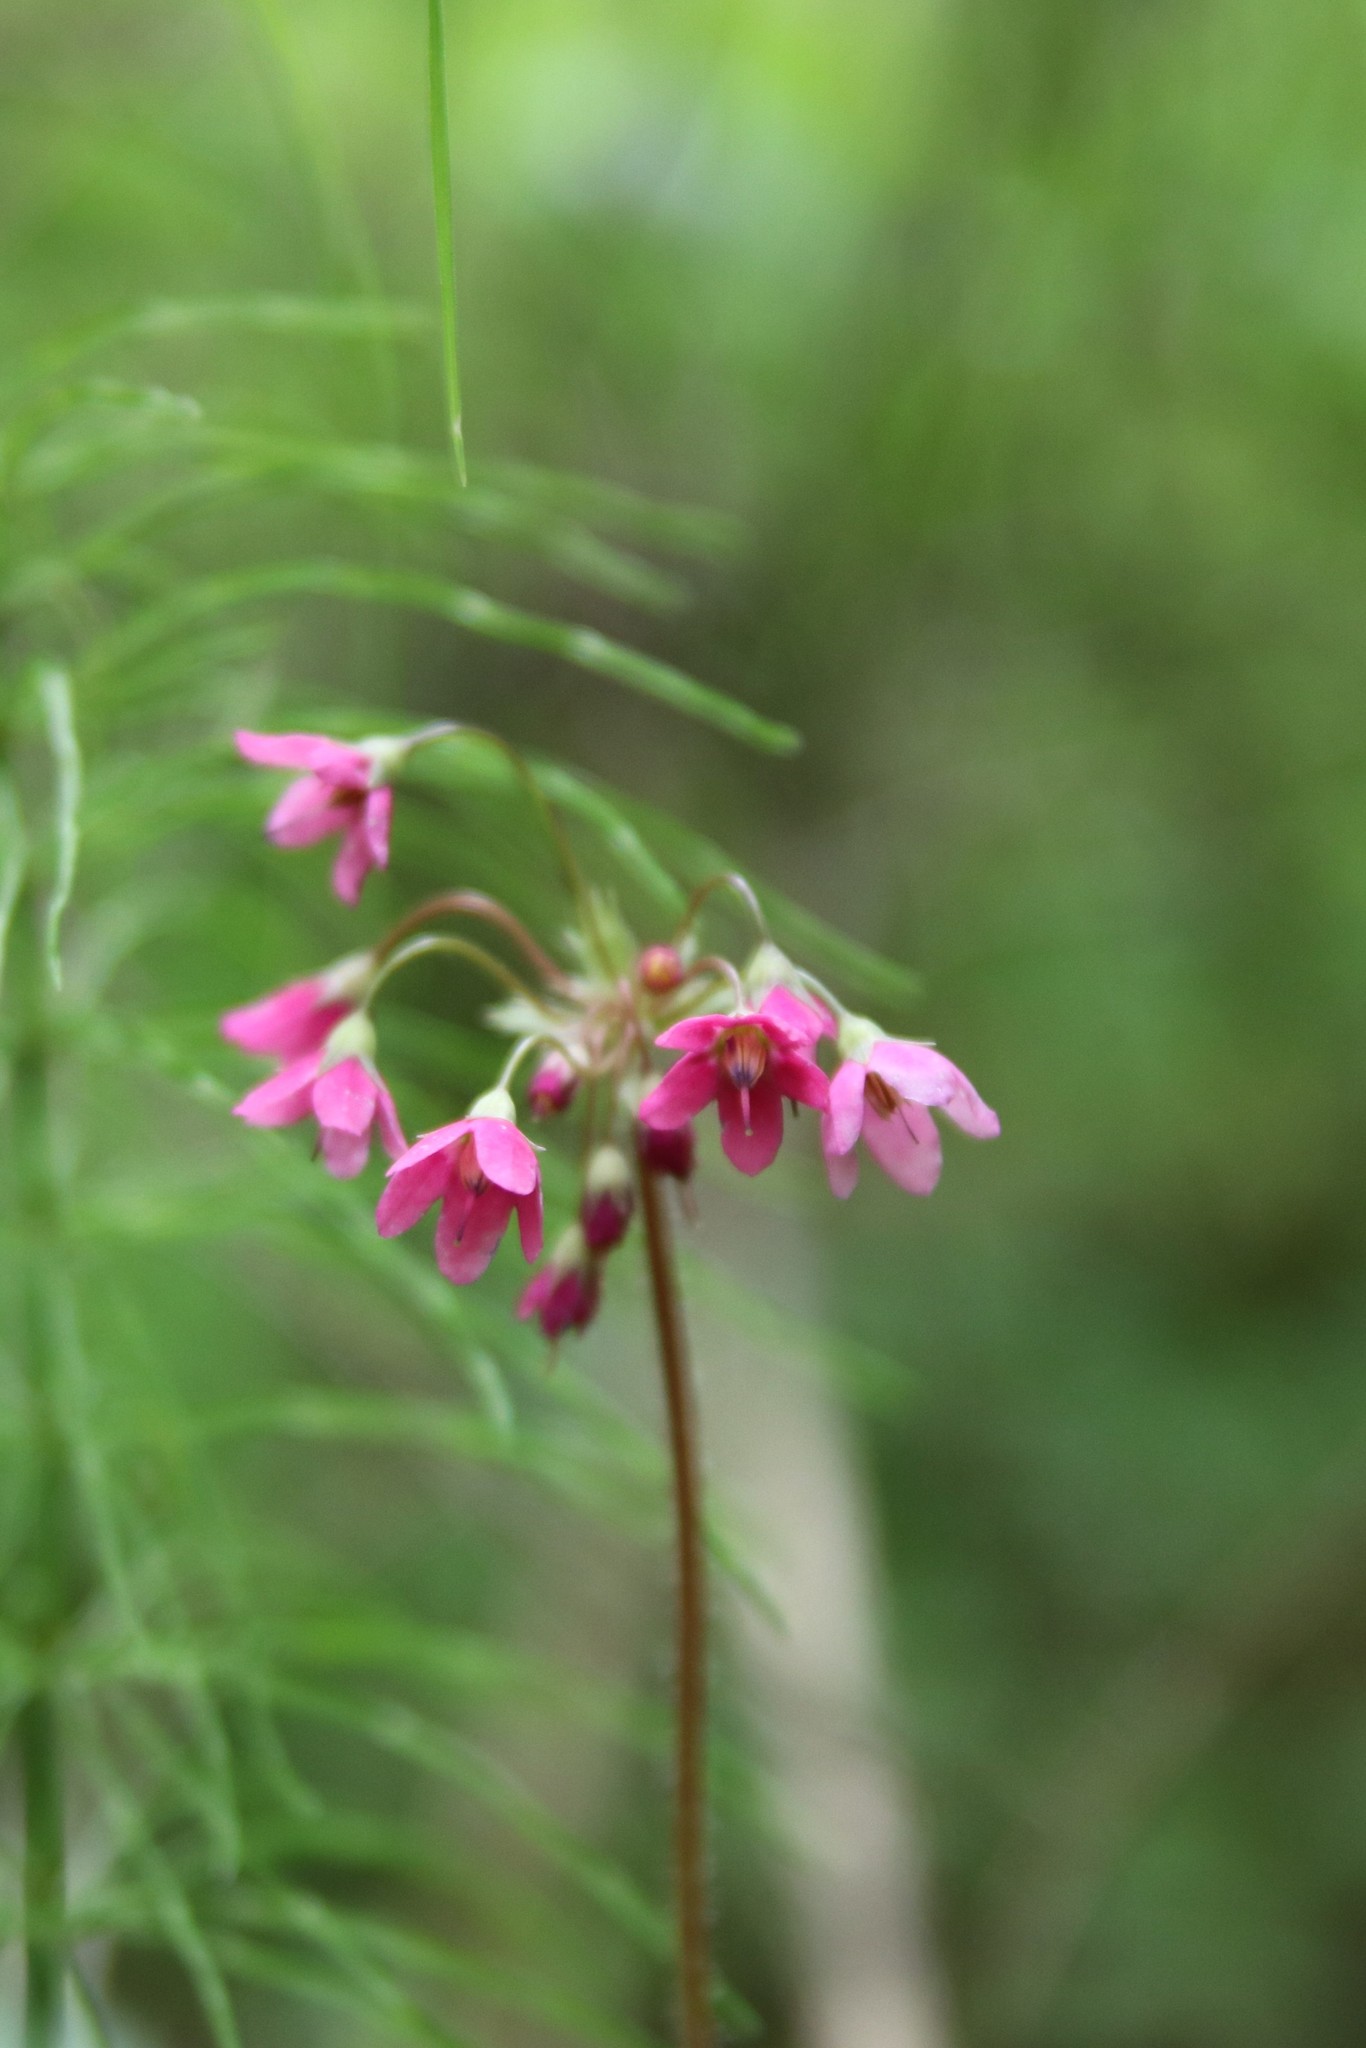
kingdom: Plantae
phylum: Tracheophyta
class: Magnoliopsida
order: Ericales
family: Primulaceae
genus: Primula
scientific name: Primula matthioli
